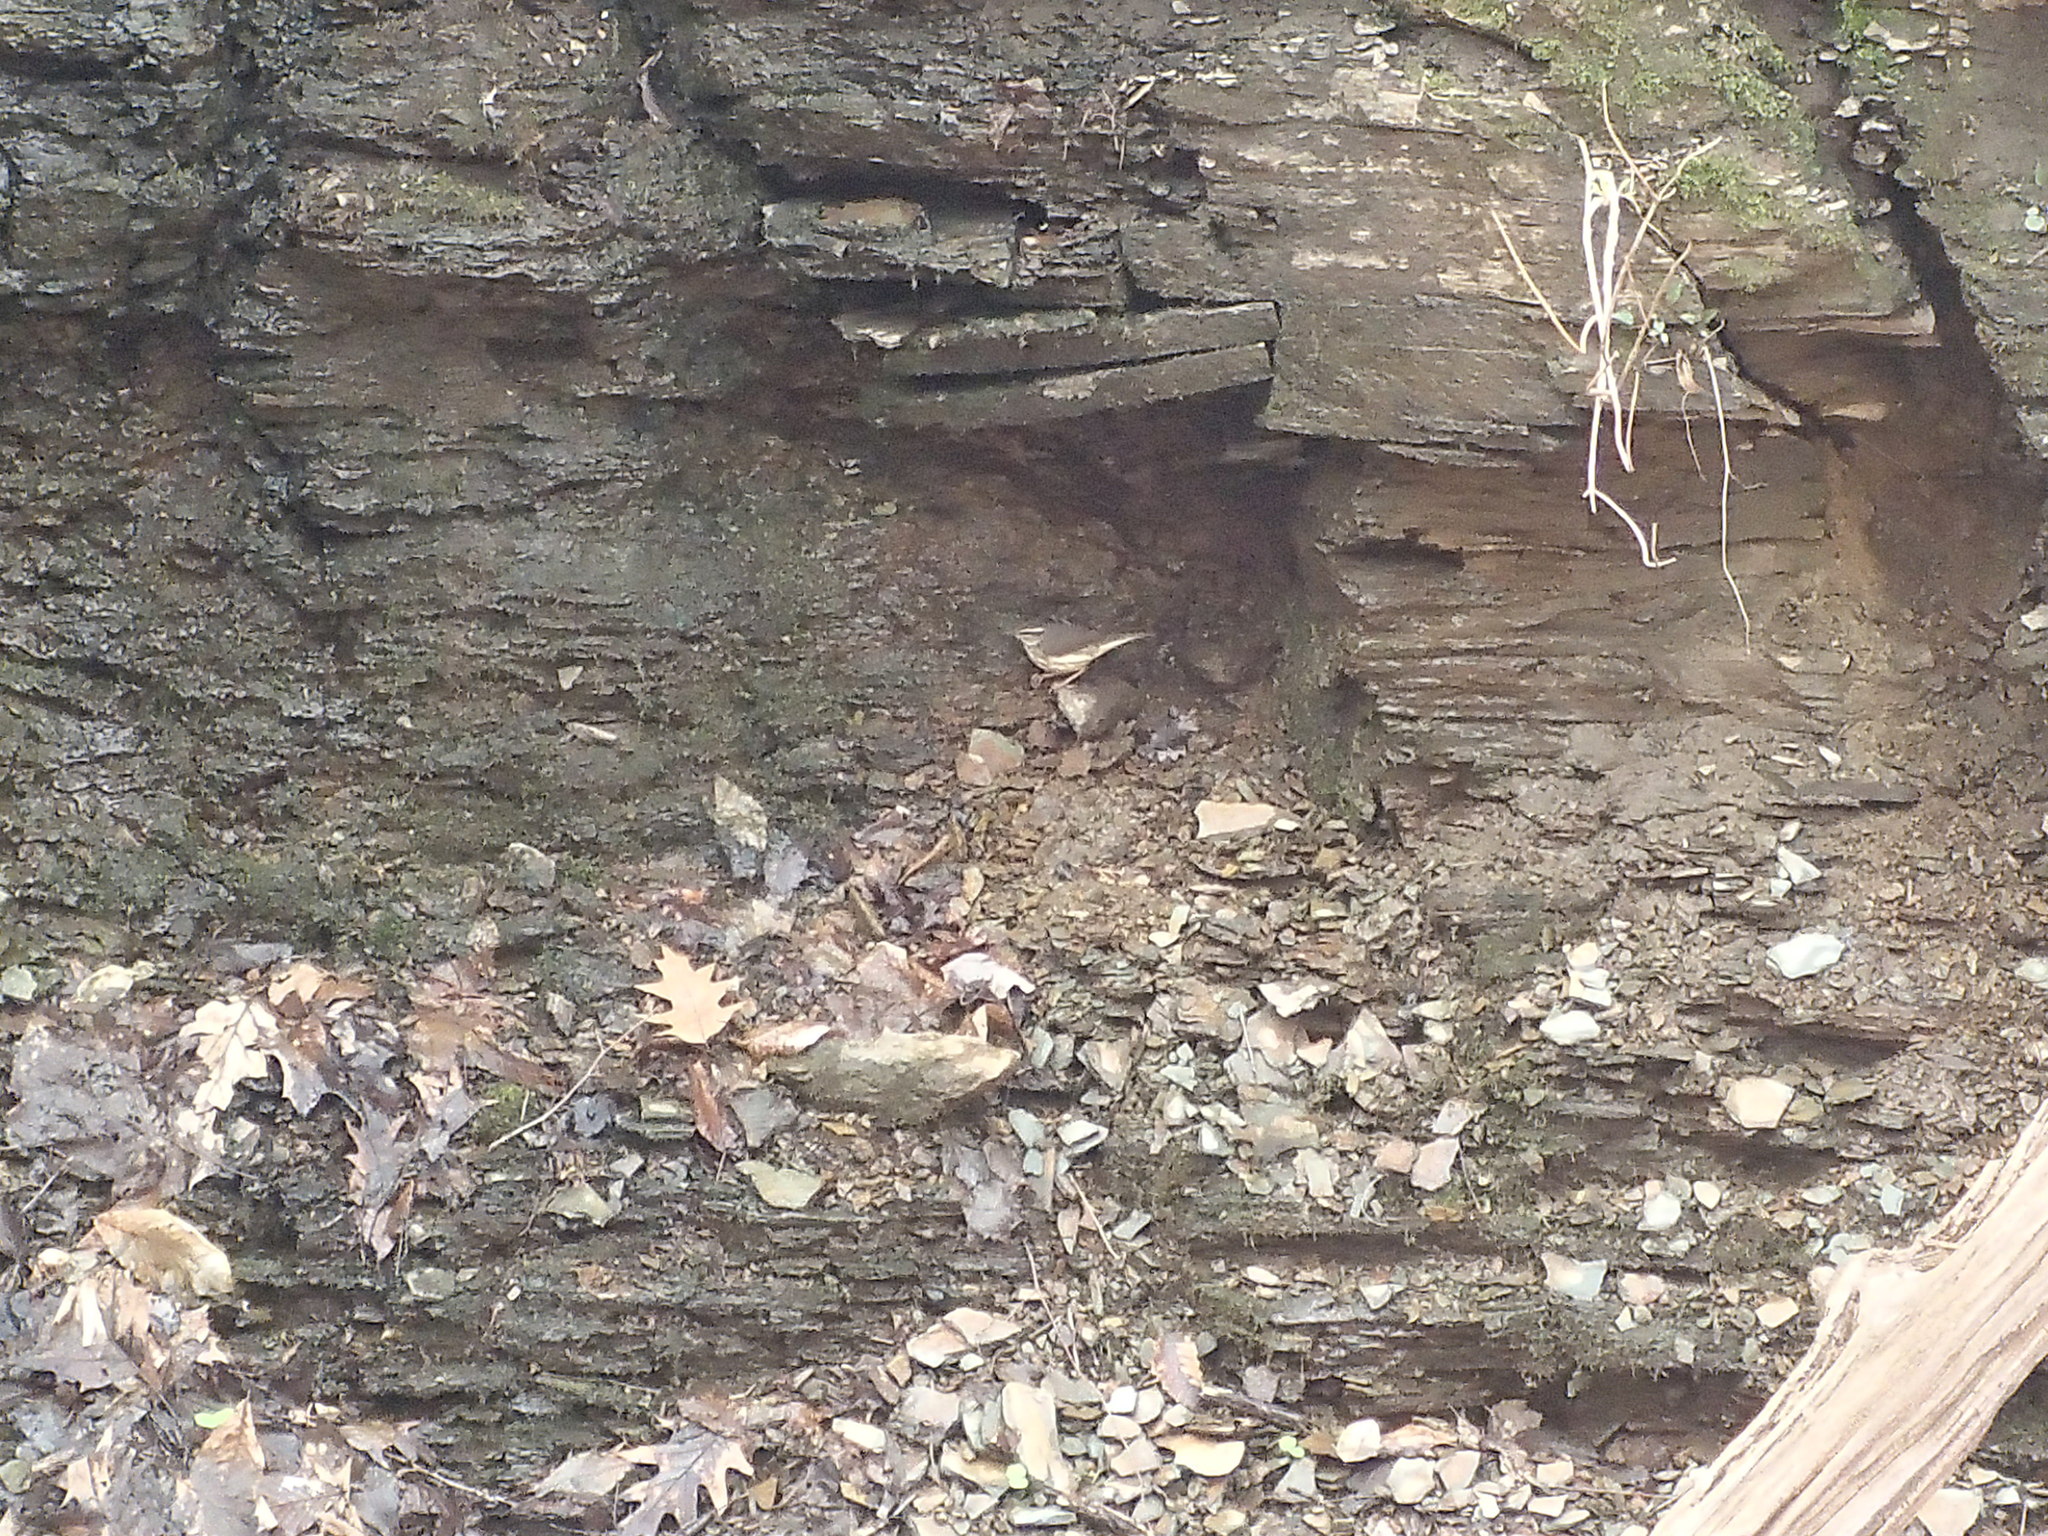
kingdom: Animalia
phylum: Chordata
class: Aves
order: Passeriformes
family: Parulidae
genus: Parkesia
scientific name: Parkesia motacilla
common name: Louisiana waterthrush
